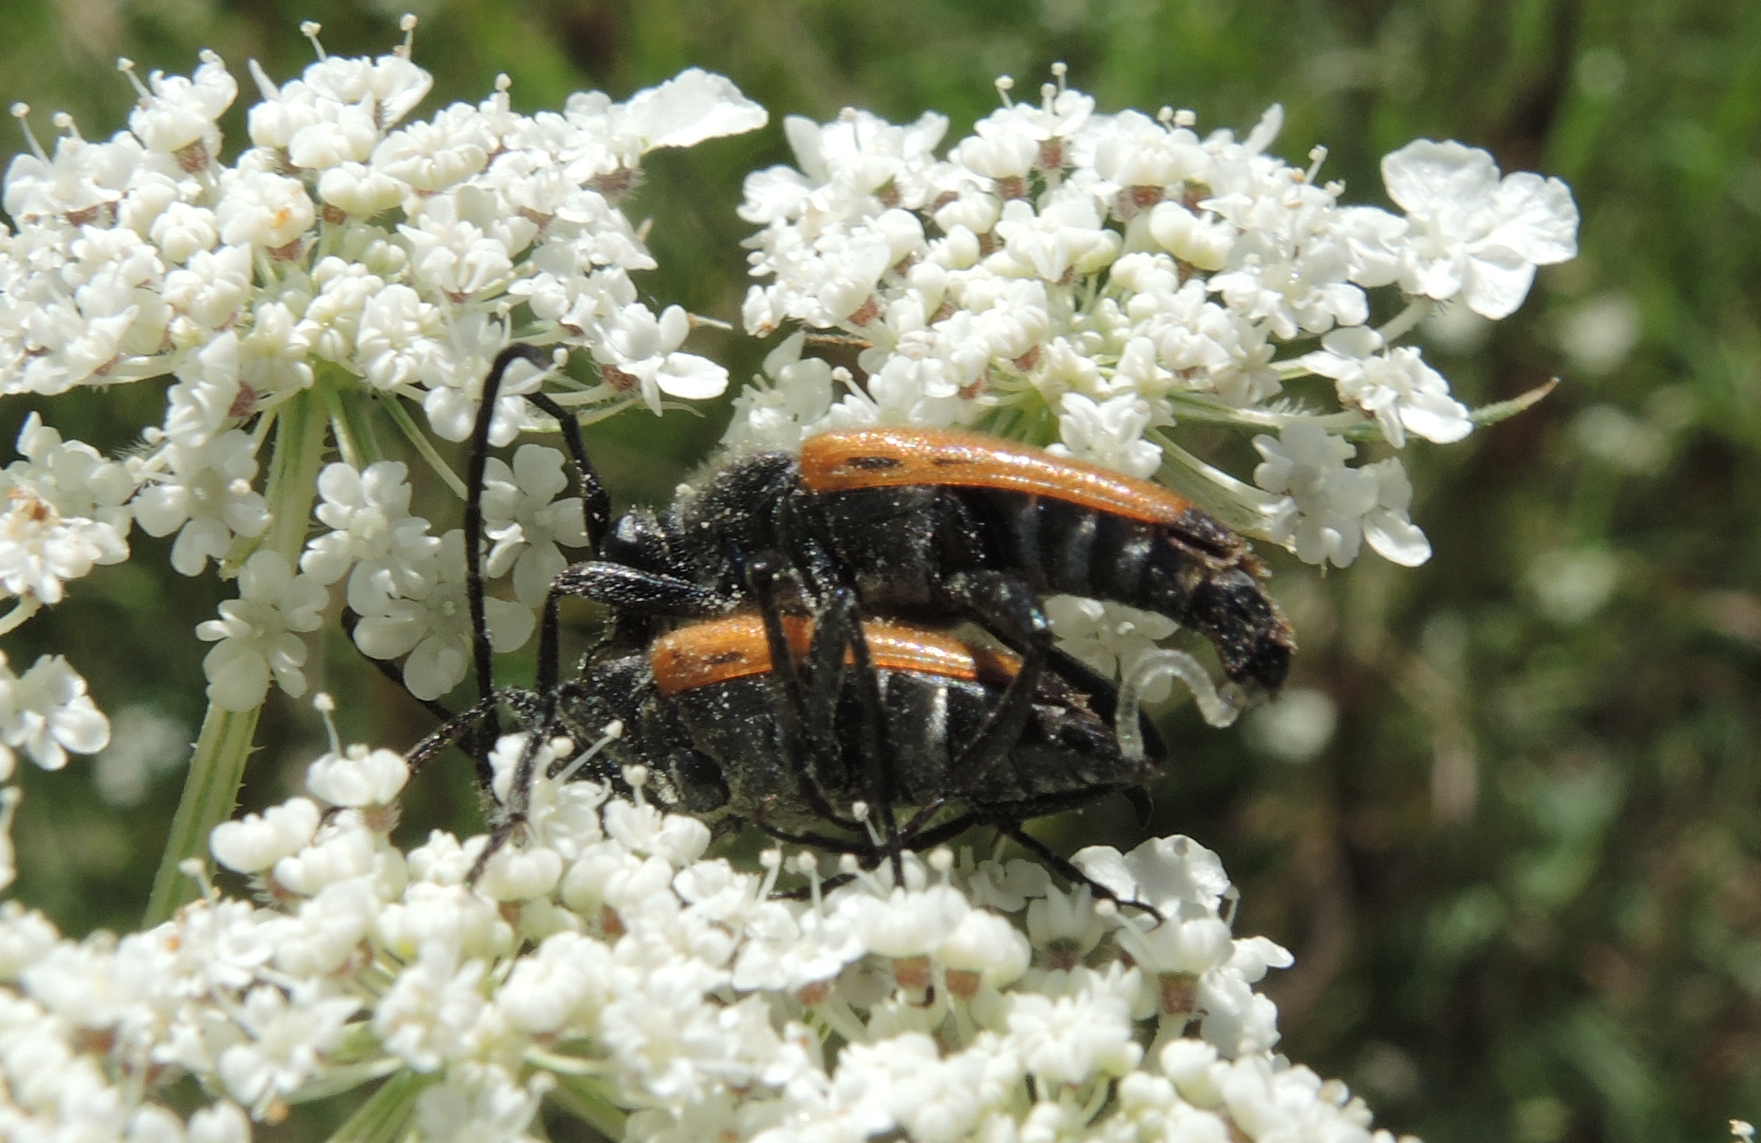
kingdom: Animalia
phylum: Arthropoda
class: Insecta
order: Coleoptera
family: Cerambycidae
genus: Paracorymbia
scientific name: Paracorymbia fulva
